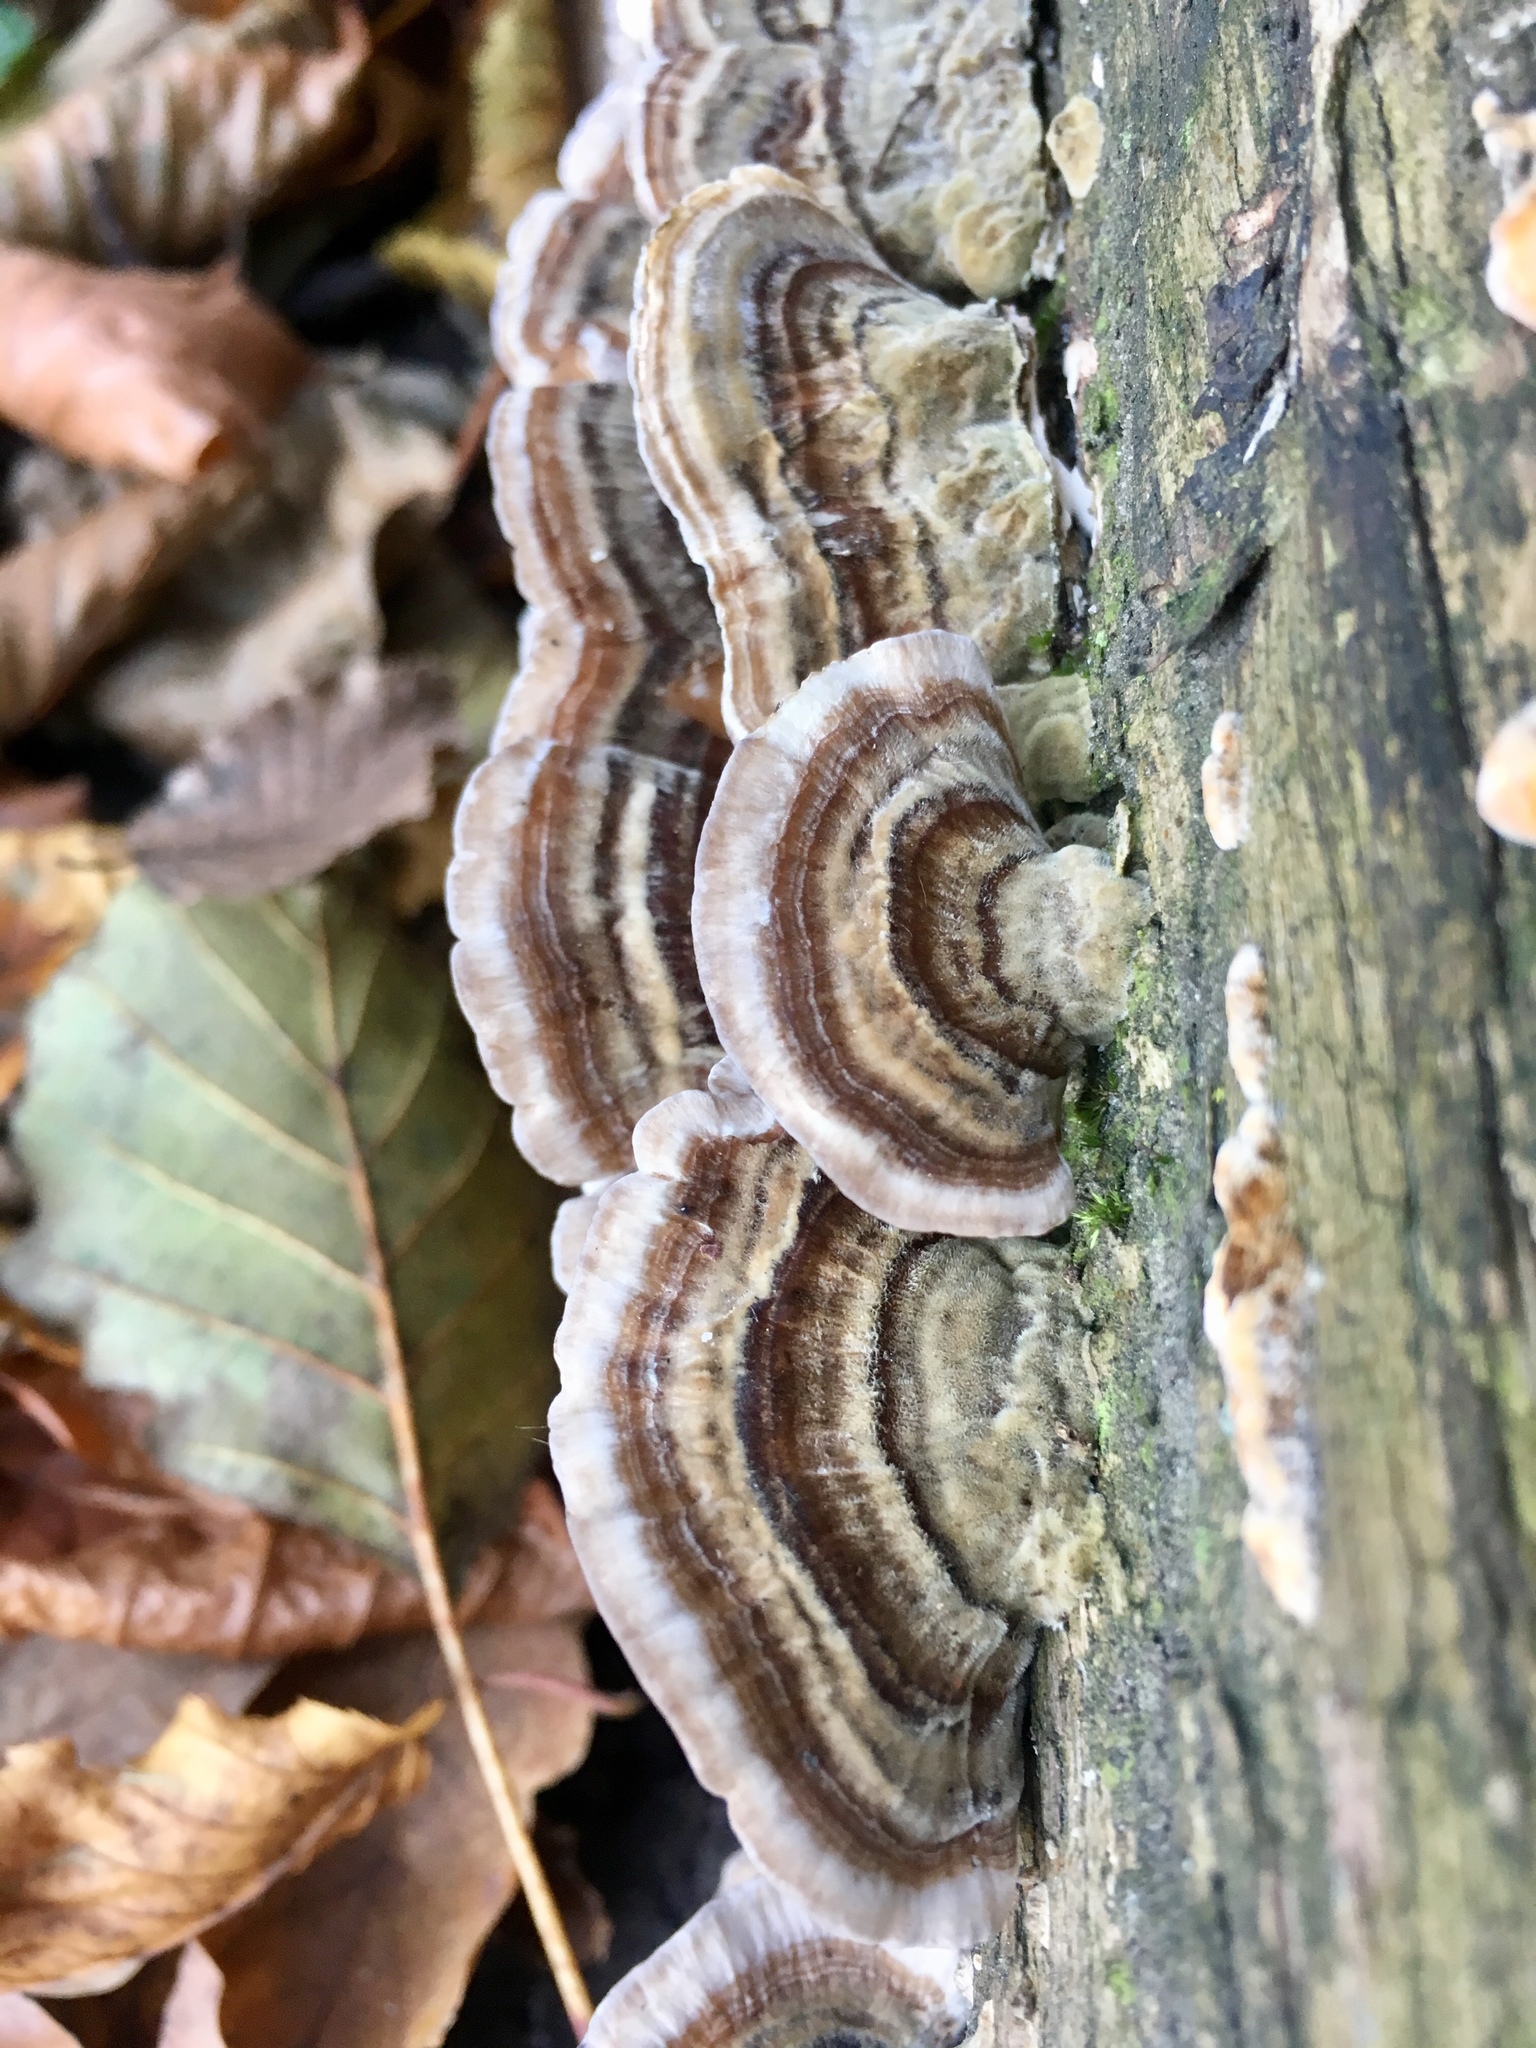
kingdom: Fungi
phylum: Basidiomycota
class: Agaricomycetes
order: Polyporales
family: Polyporaceae
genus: Trametes
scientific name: Trametes versicolor
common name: Turkeytail
